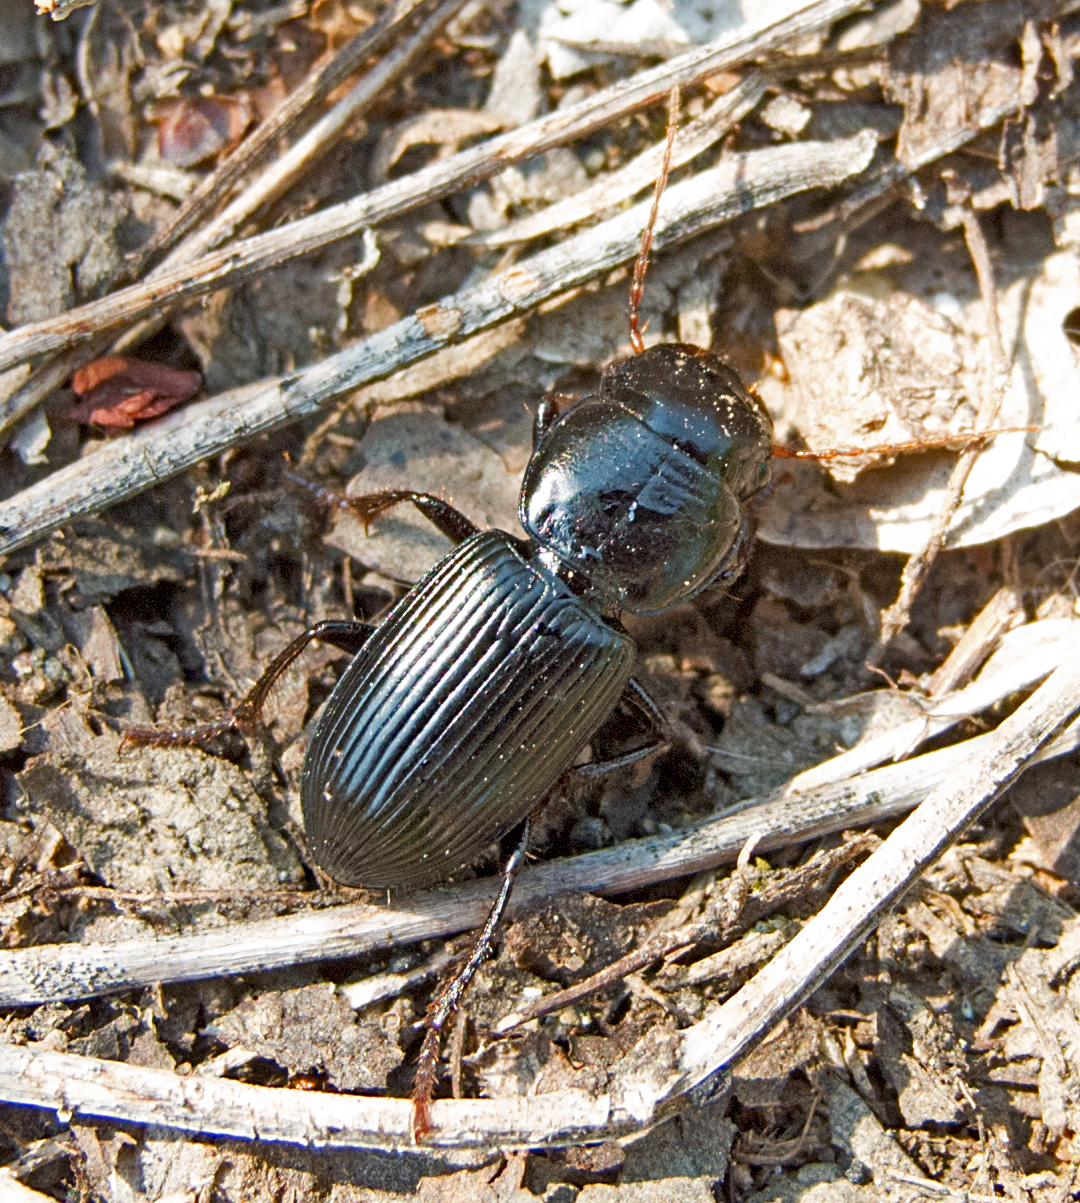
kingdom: Animalia
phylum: Arthropoda
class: Insecta
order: Coleoptera
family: Carabidae
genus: Acinopus
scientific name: Acinopus megacephalus
